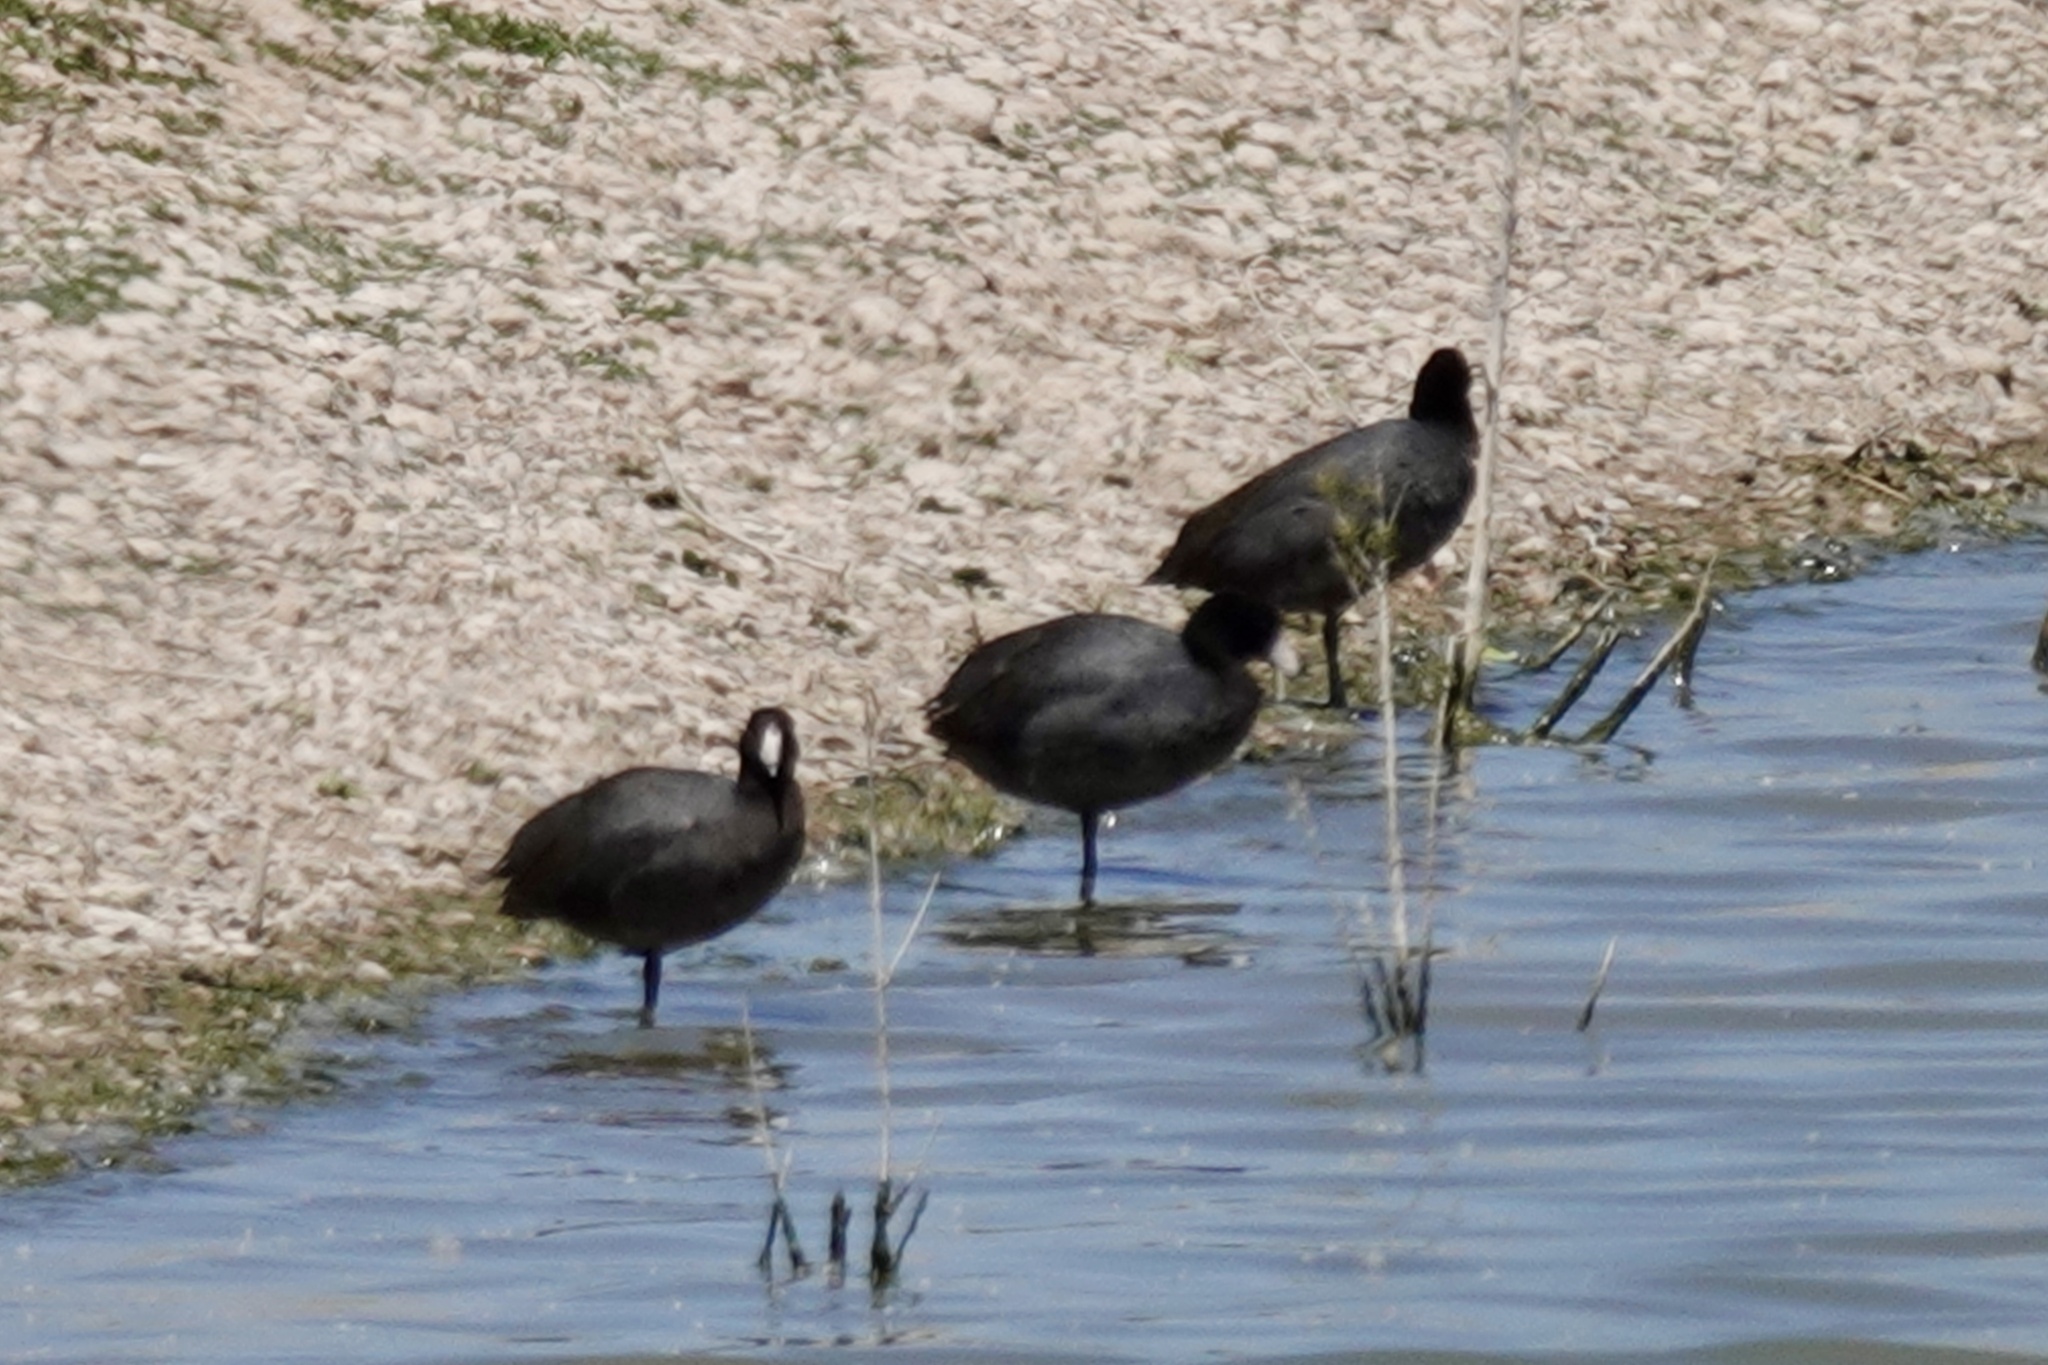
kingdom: Animalia
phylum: Chordata
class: Aves
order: Gruiformes
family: Rallidae
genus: Fulica
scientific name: Fulica americana
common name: American coot
